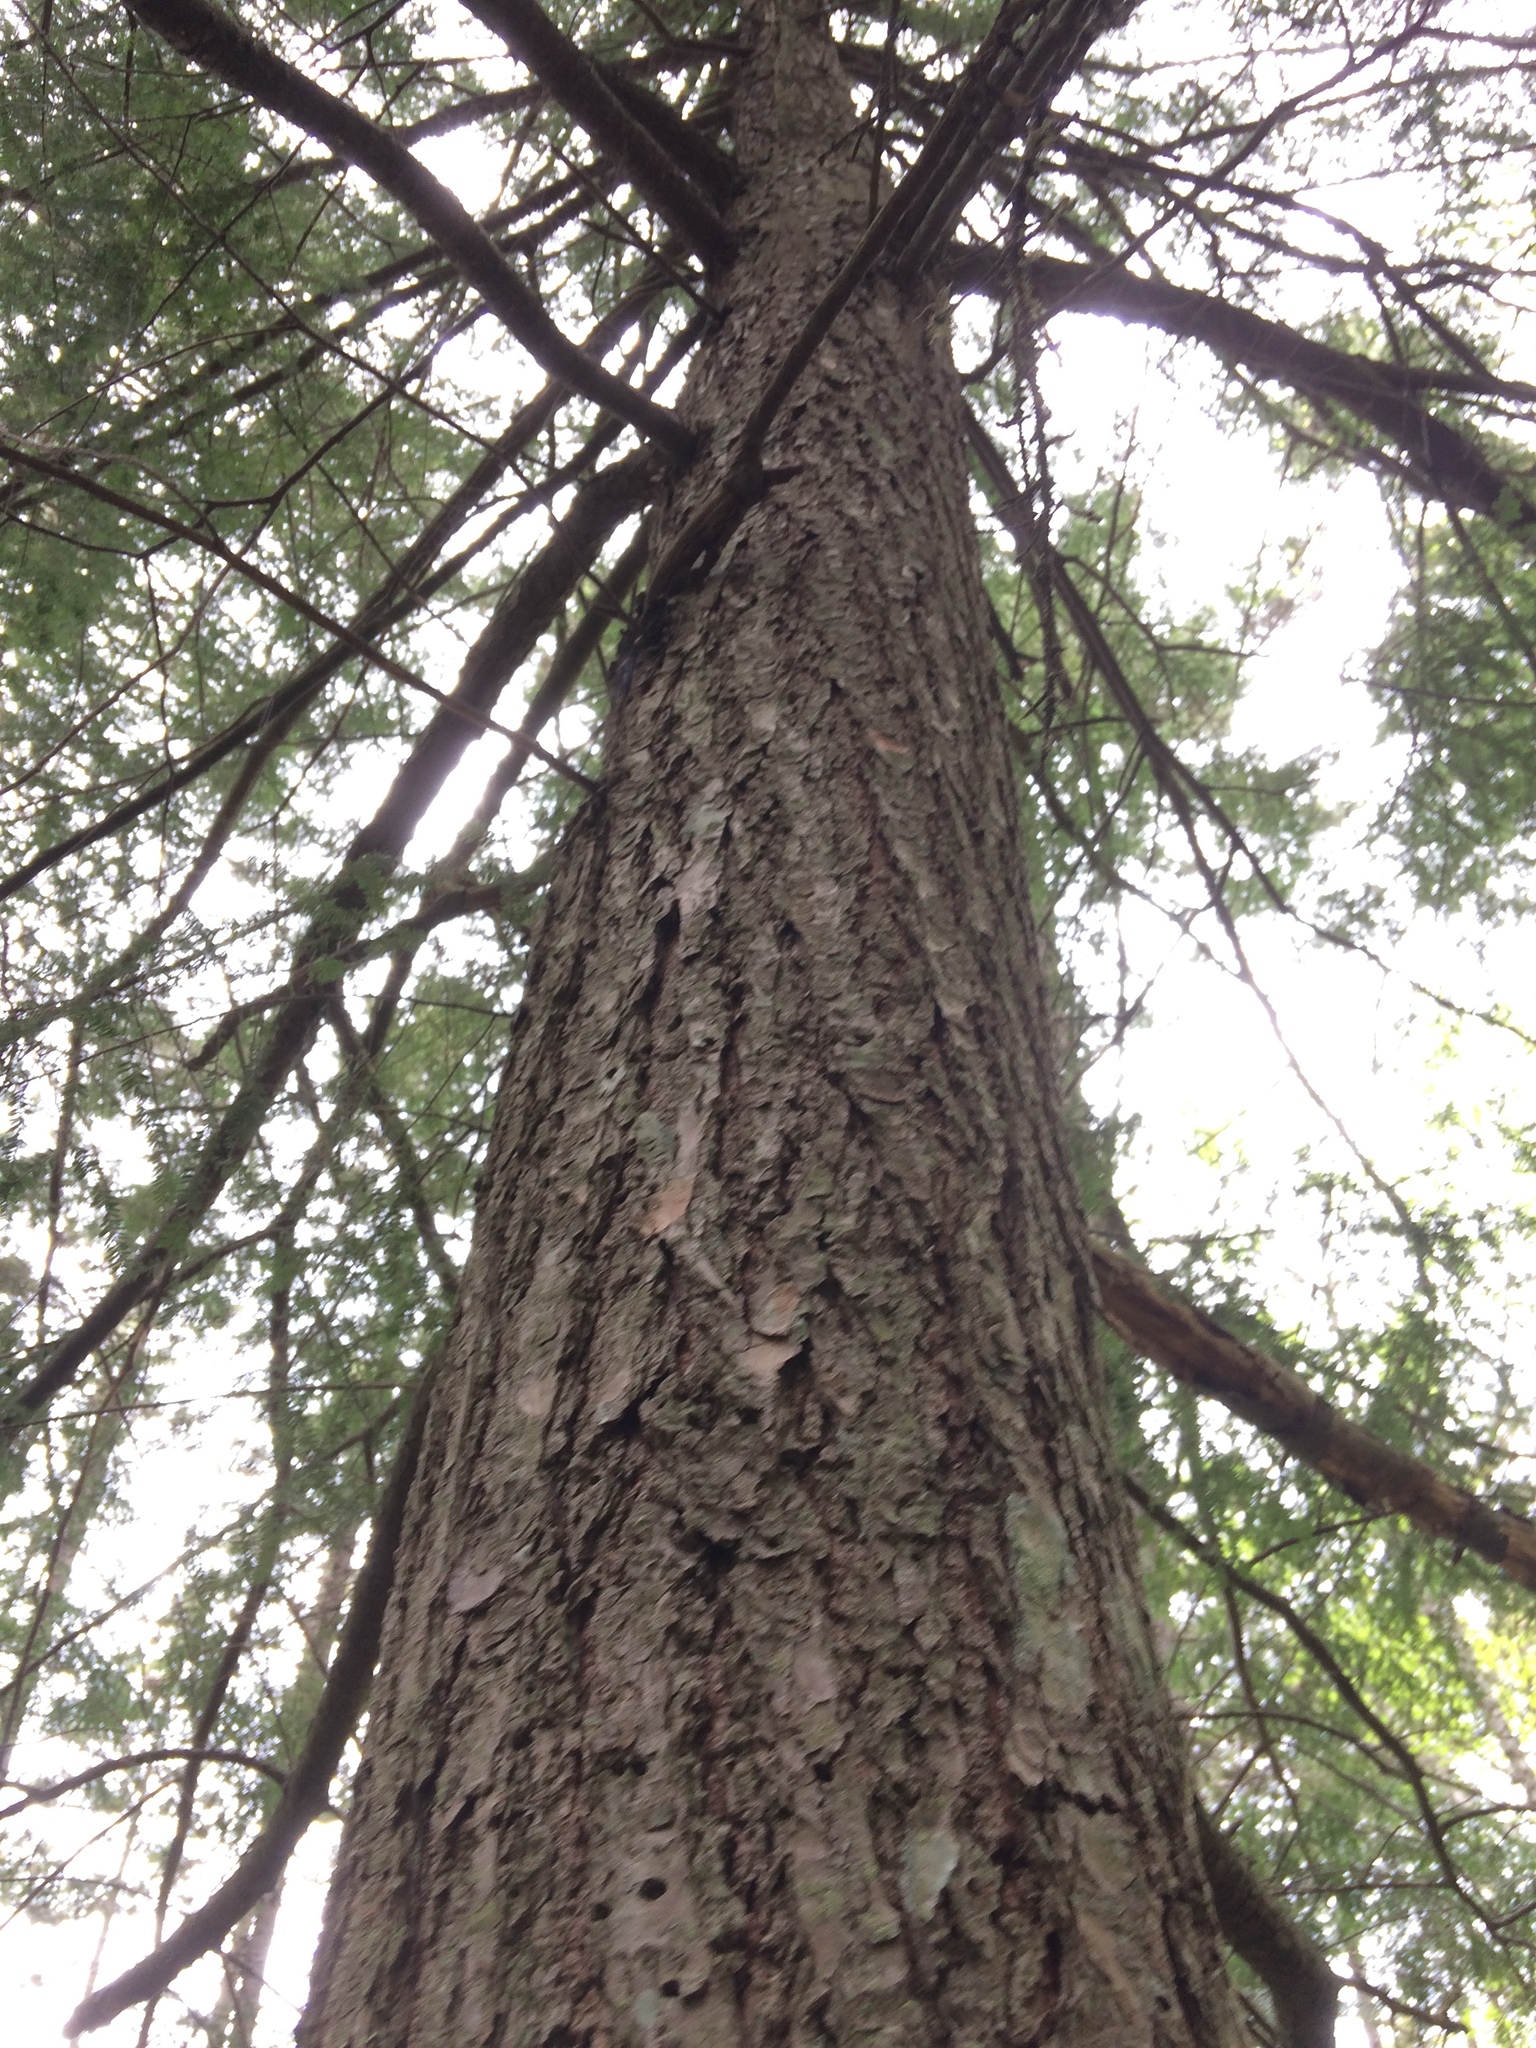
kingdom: Plantae
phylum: Tracheophyta
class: Pinopsida
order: Pinales
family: Pinaceae
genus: Tsuga
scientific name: Tsuga canadensis
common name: Eastern hemlock
